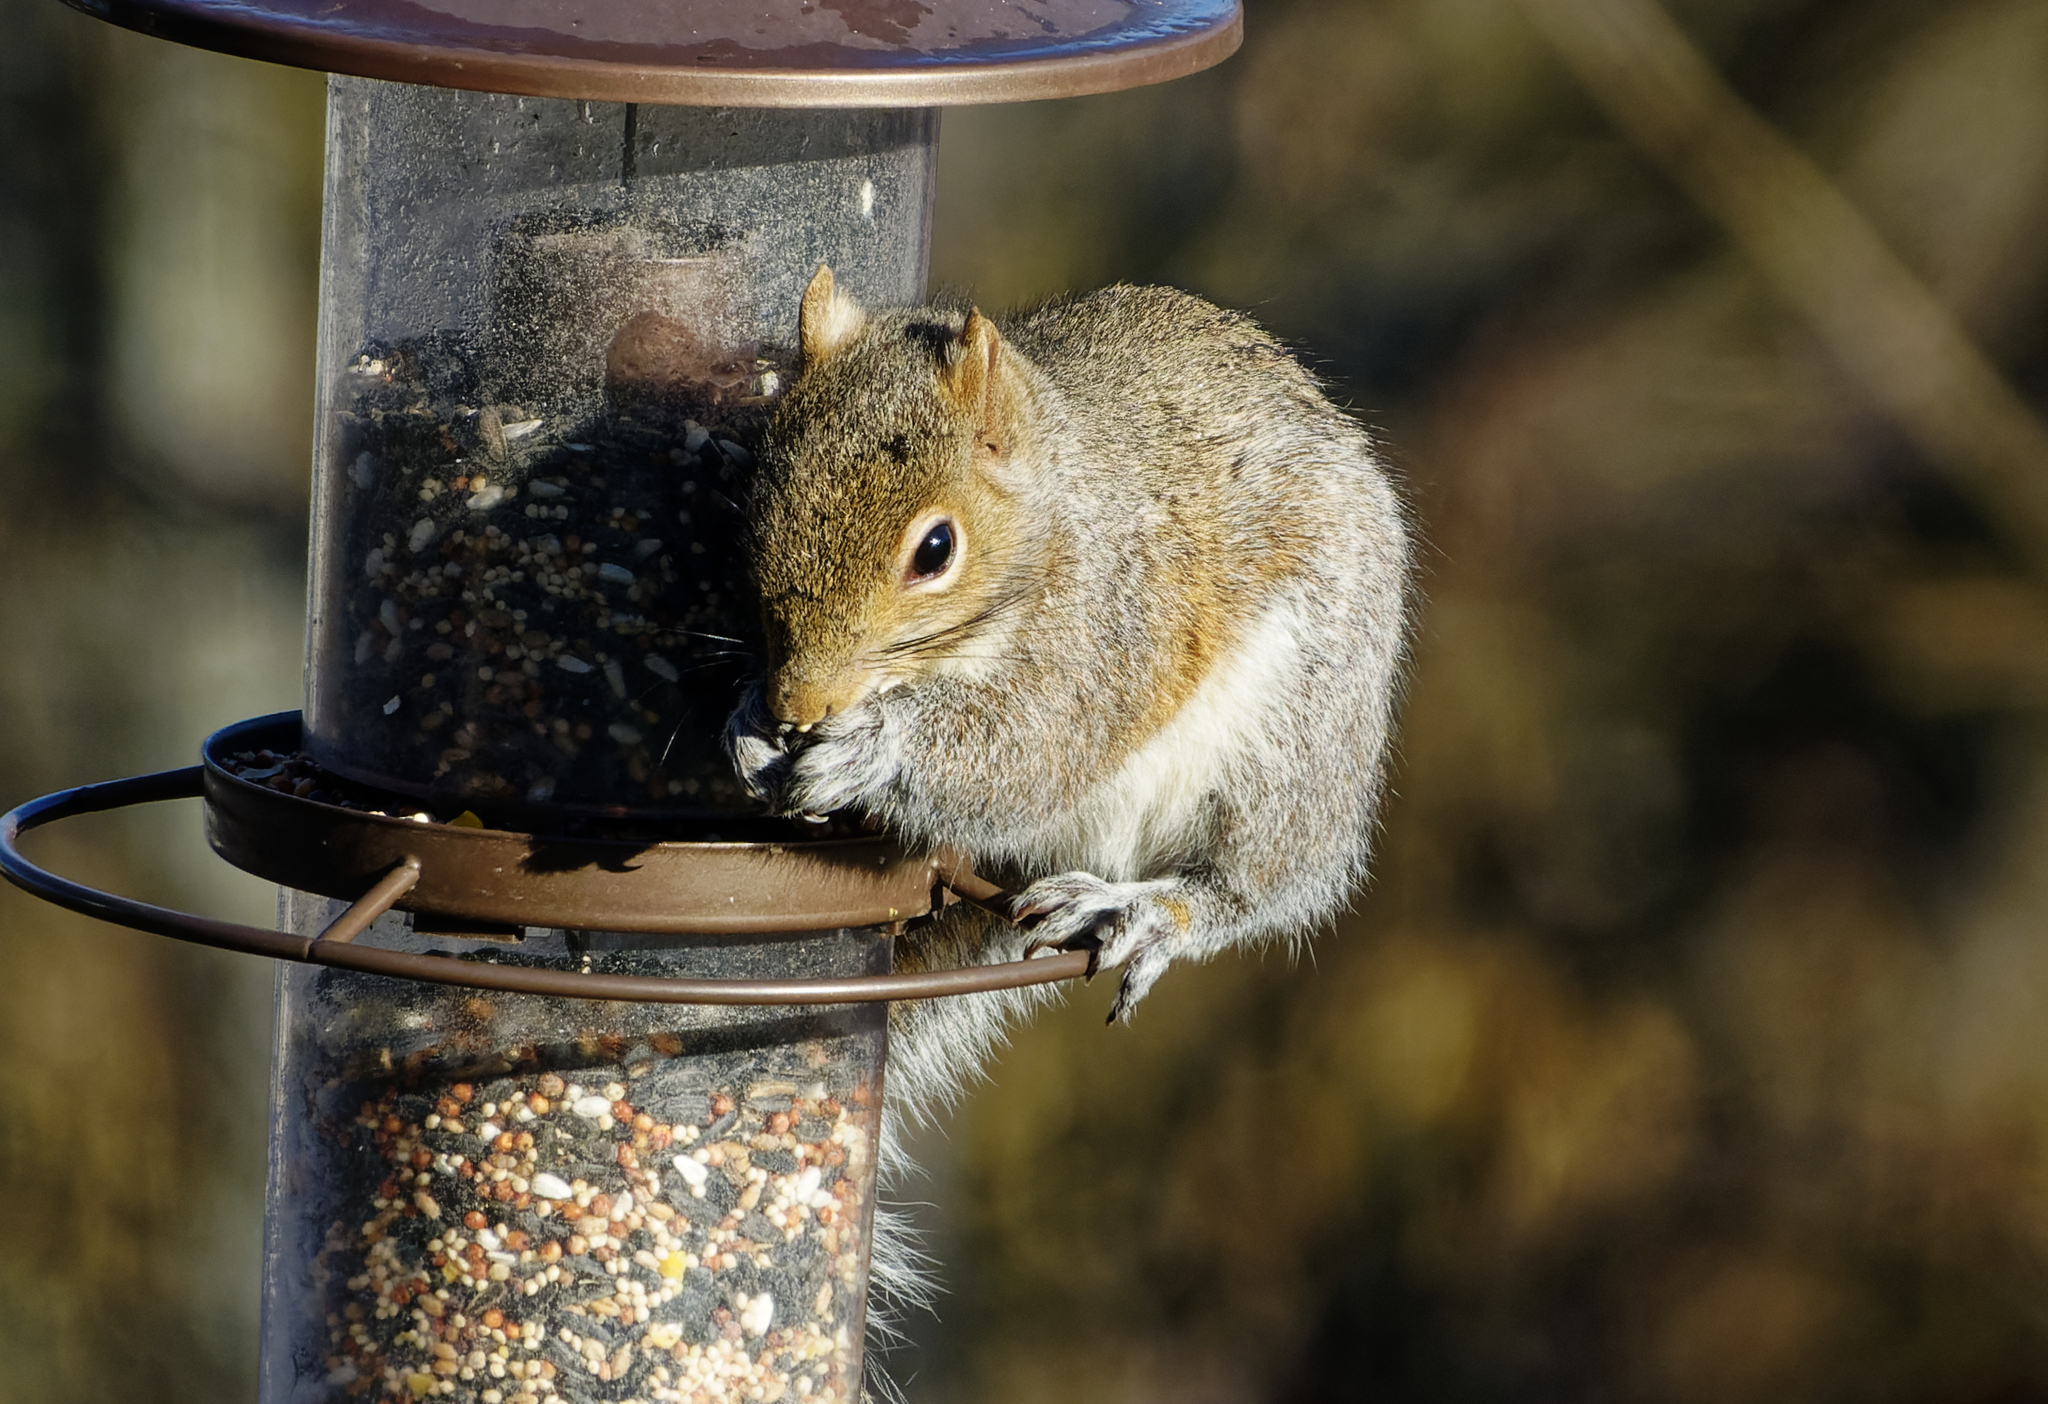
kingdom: Animalia
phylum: Chordata
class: Mammalia
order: Rodentia
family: Sciuridae
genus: Sciurus
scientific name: Sciurus carolinensis
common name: Eastern gray squirrel
